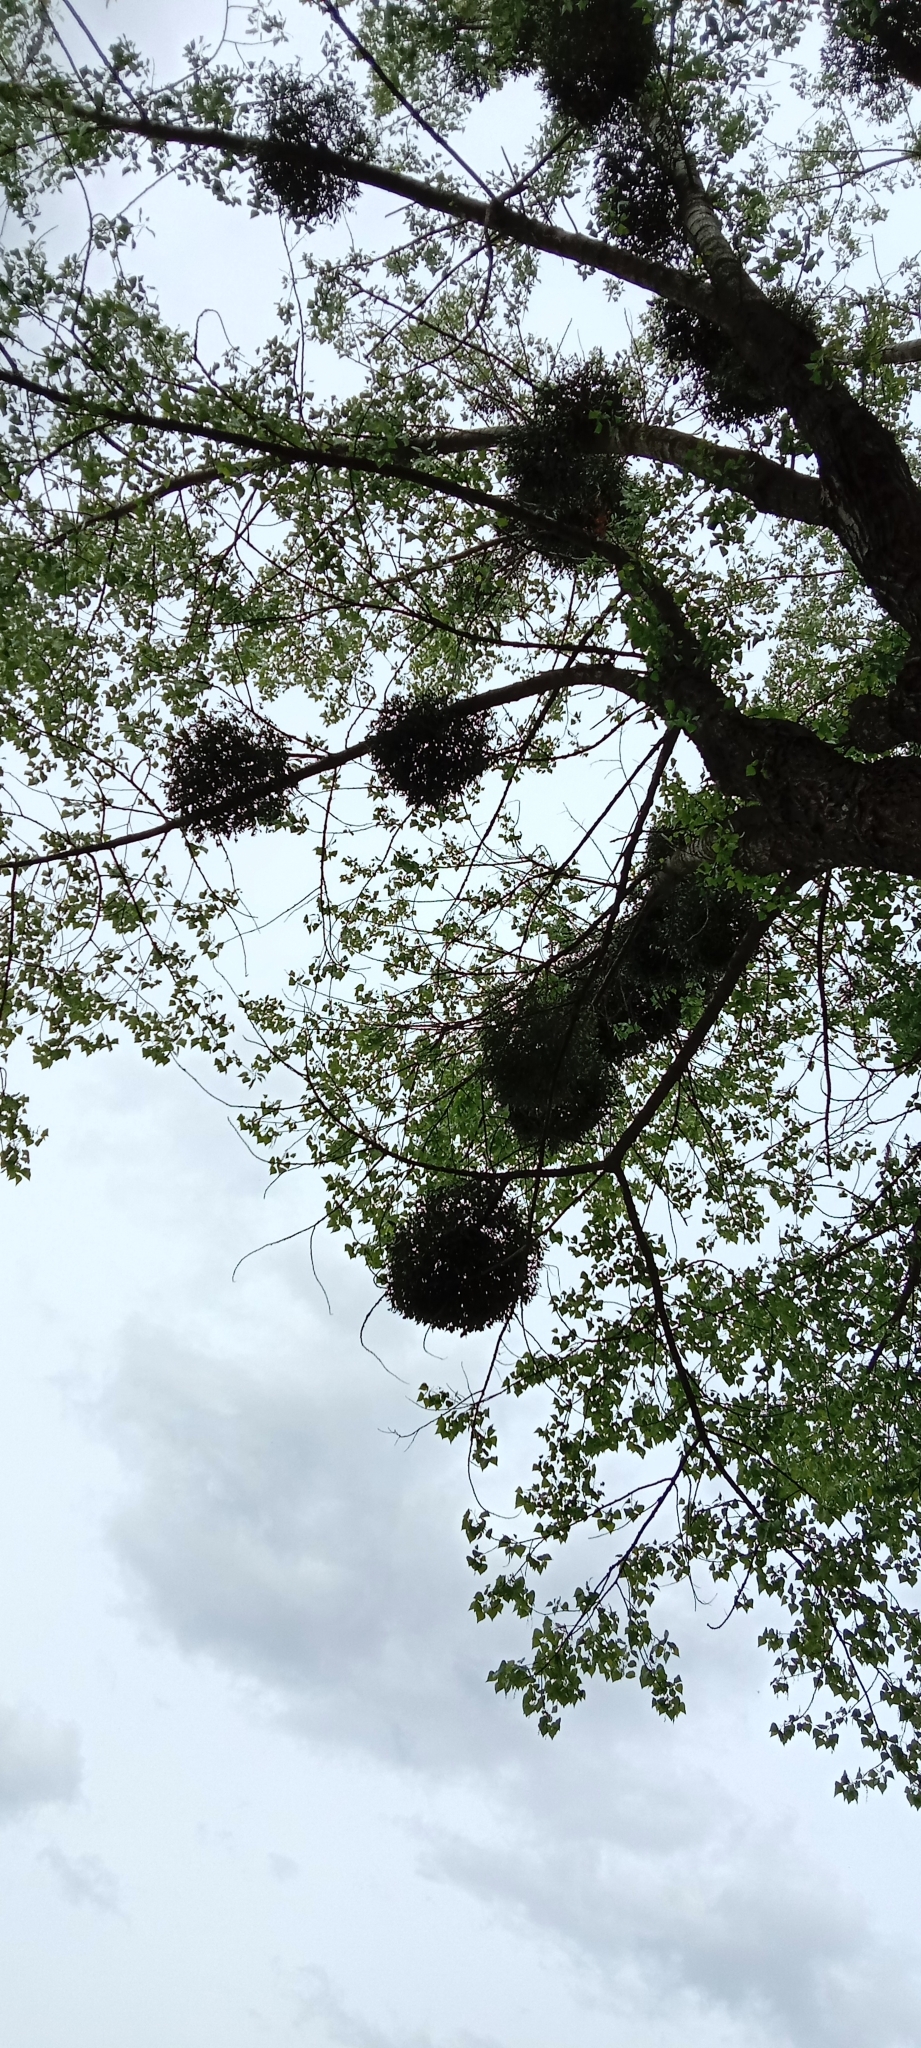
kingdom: Plantae
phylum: Tracheophyta
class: Magnoliopsida
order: Santalales
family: Viscaceae
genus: Viscum
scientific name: Viscum album
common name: Mistletoe
